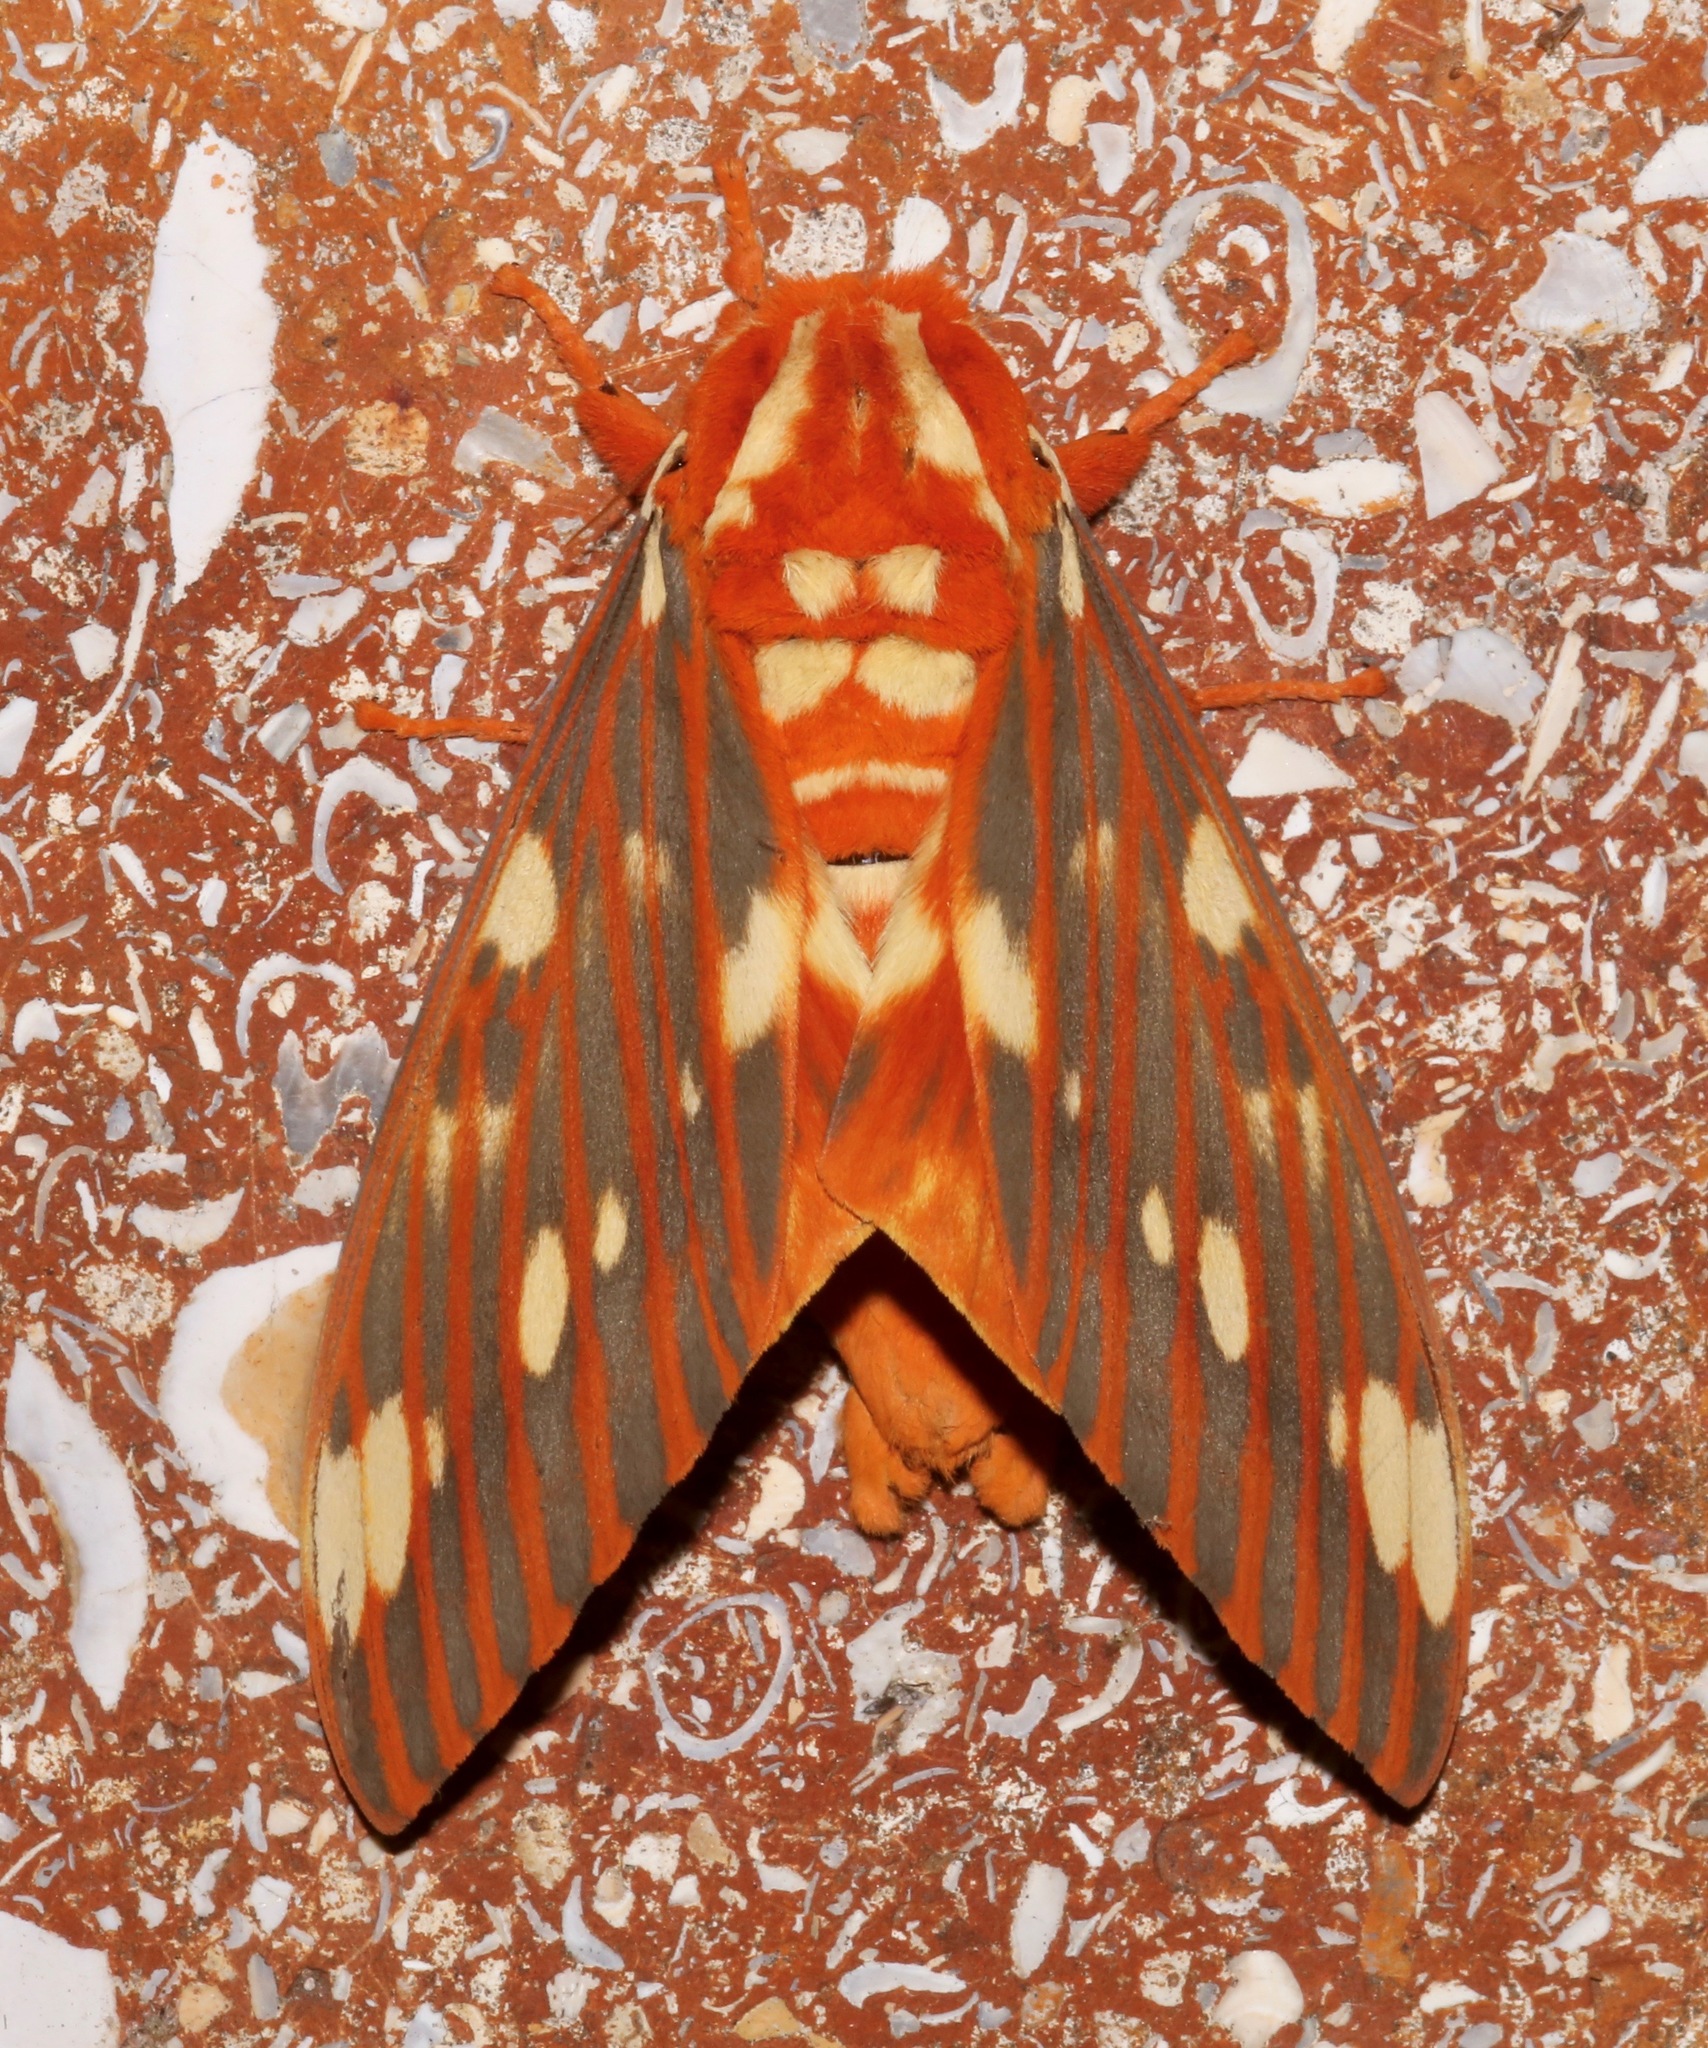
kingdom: Animalia
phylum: Arthropoda
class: Insecta
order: Lepidoptera
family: Saturniidae
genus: Citheronia
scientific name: Citheronia regalis
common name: Hickory horned devil
